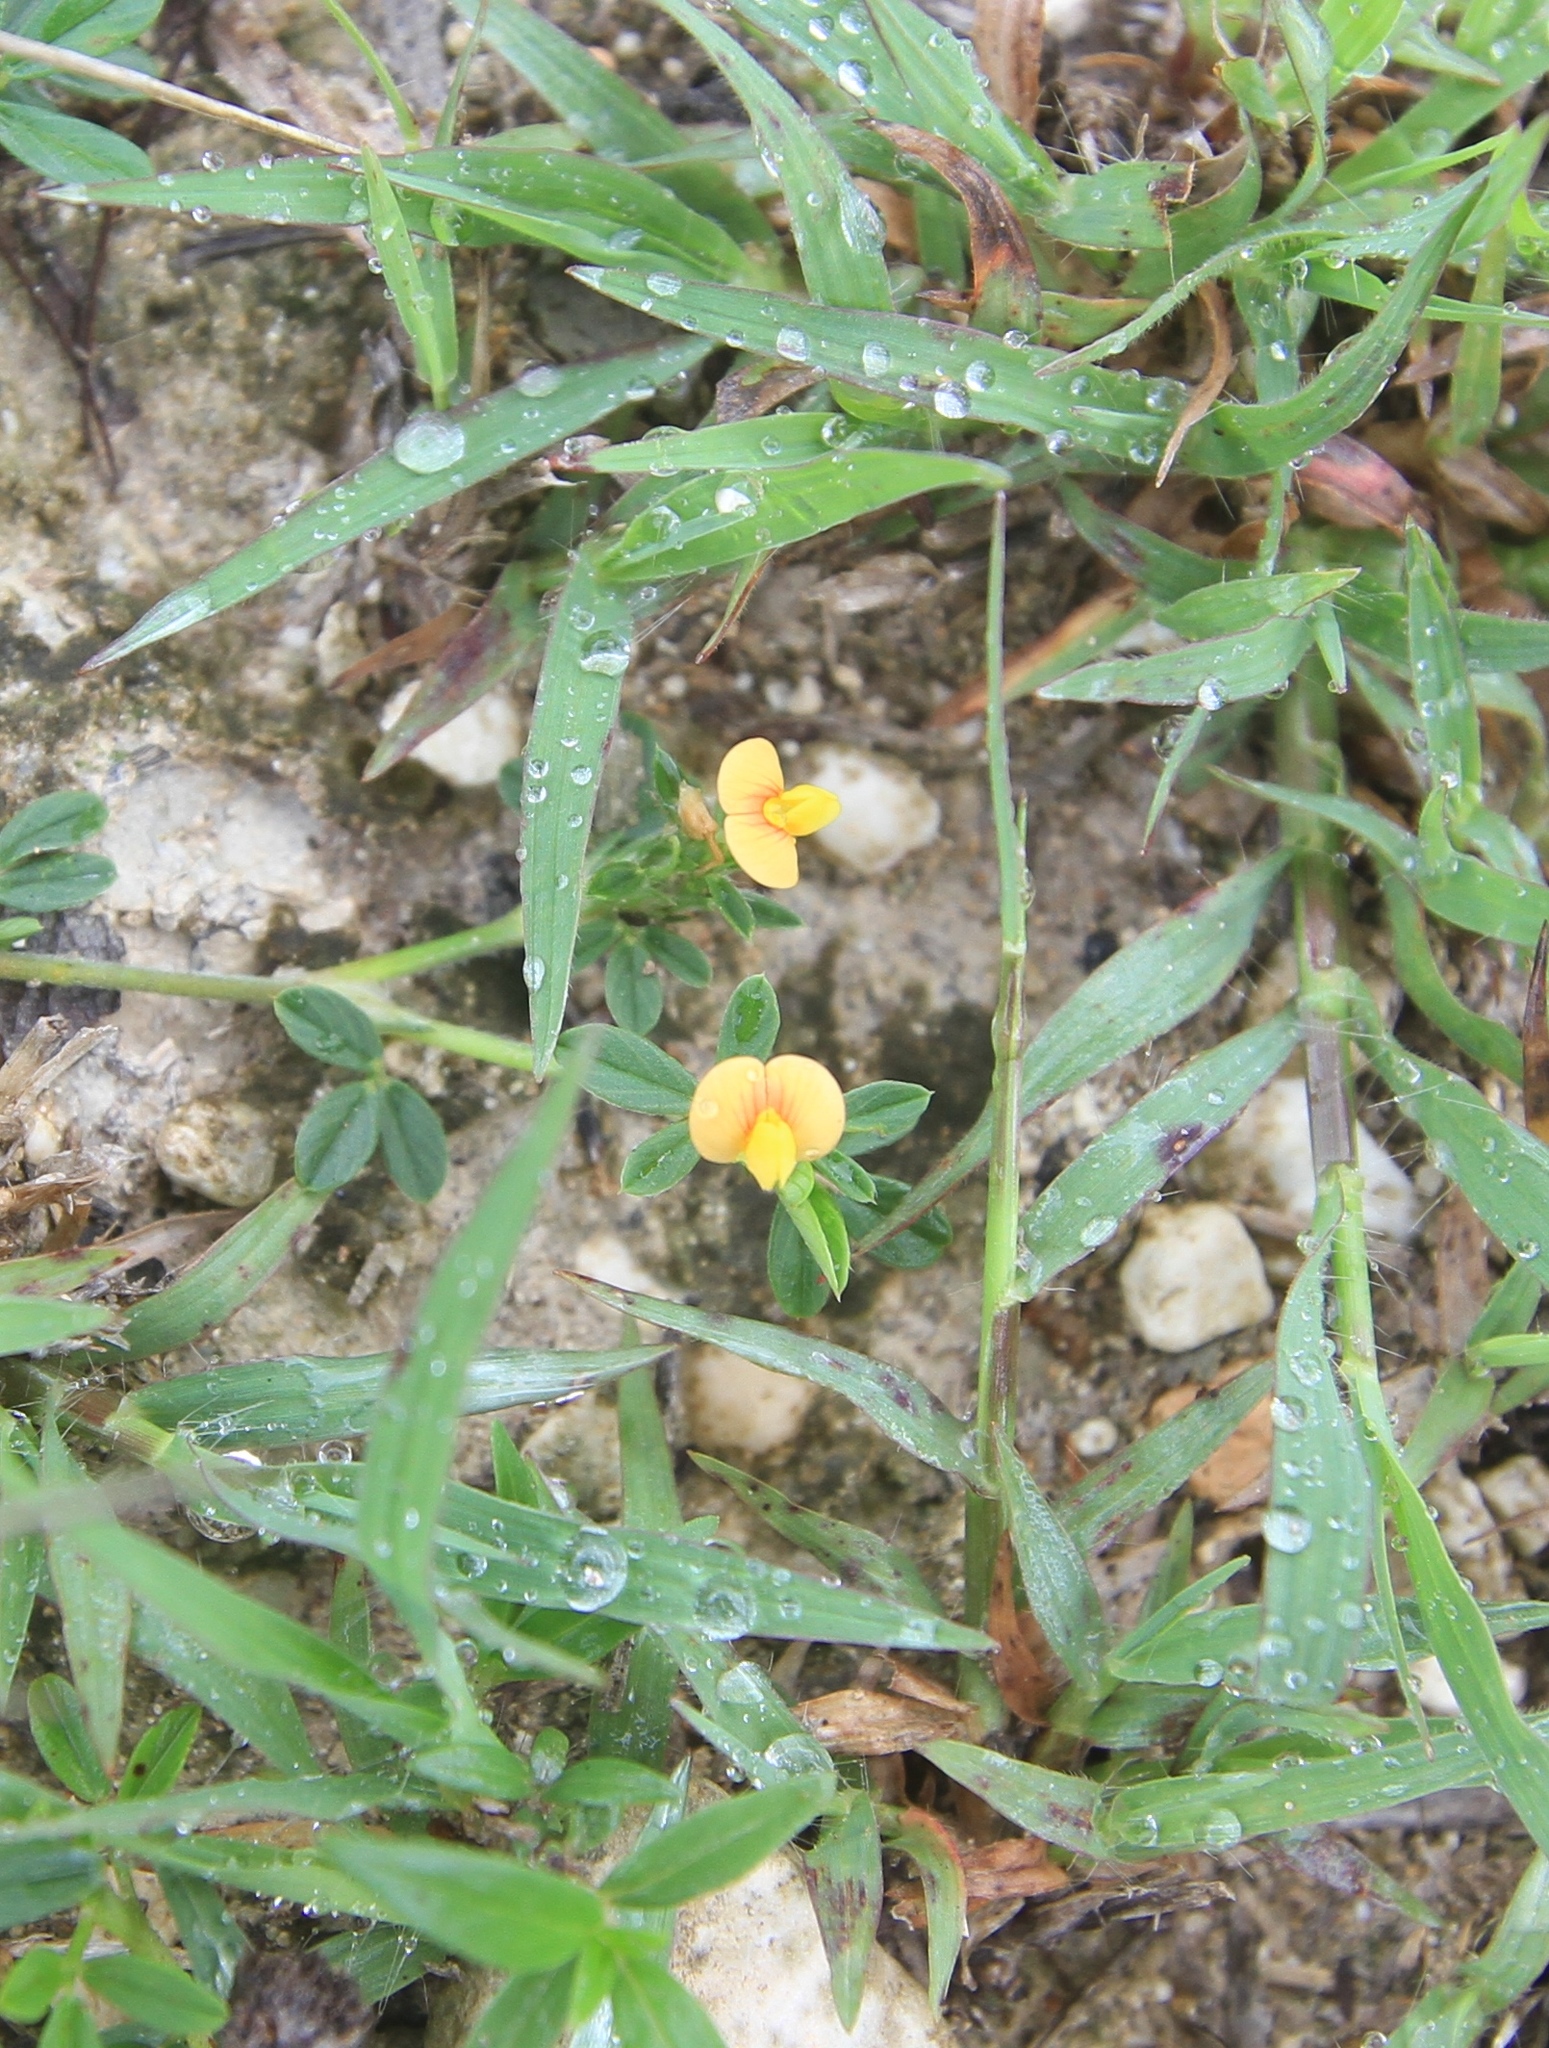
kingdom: Plantae
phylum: Tracheophyta
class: Magnoliopsida
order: Fabales
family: Fabaceae
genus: Stylosanthes
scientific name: Stylosanthes hamata
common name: Cheesytoes
